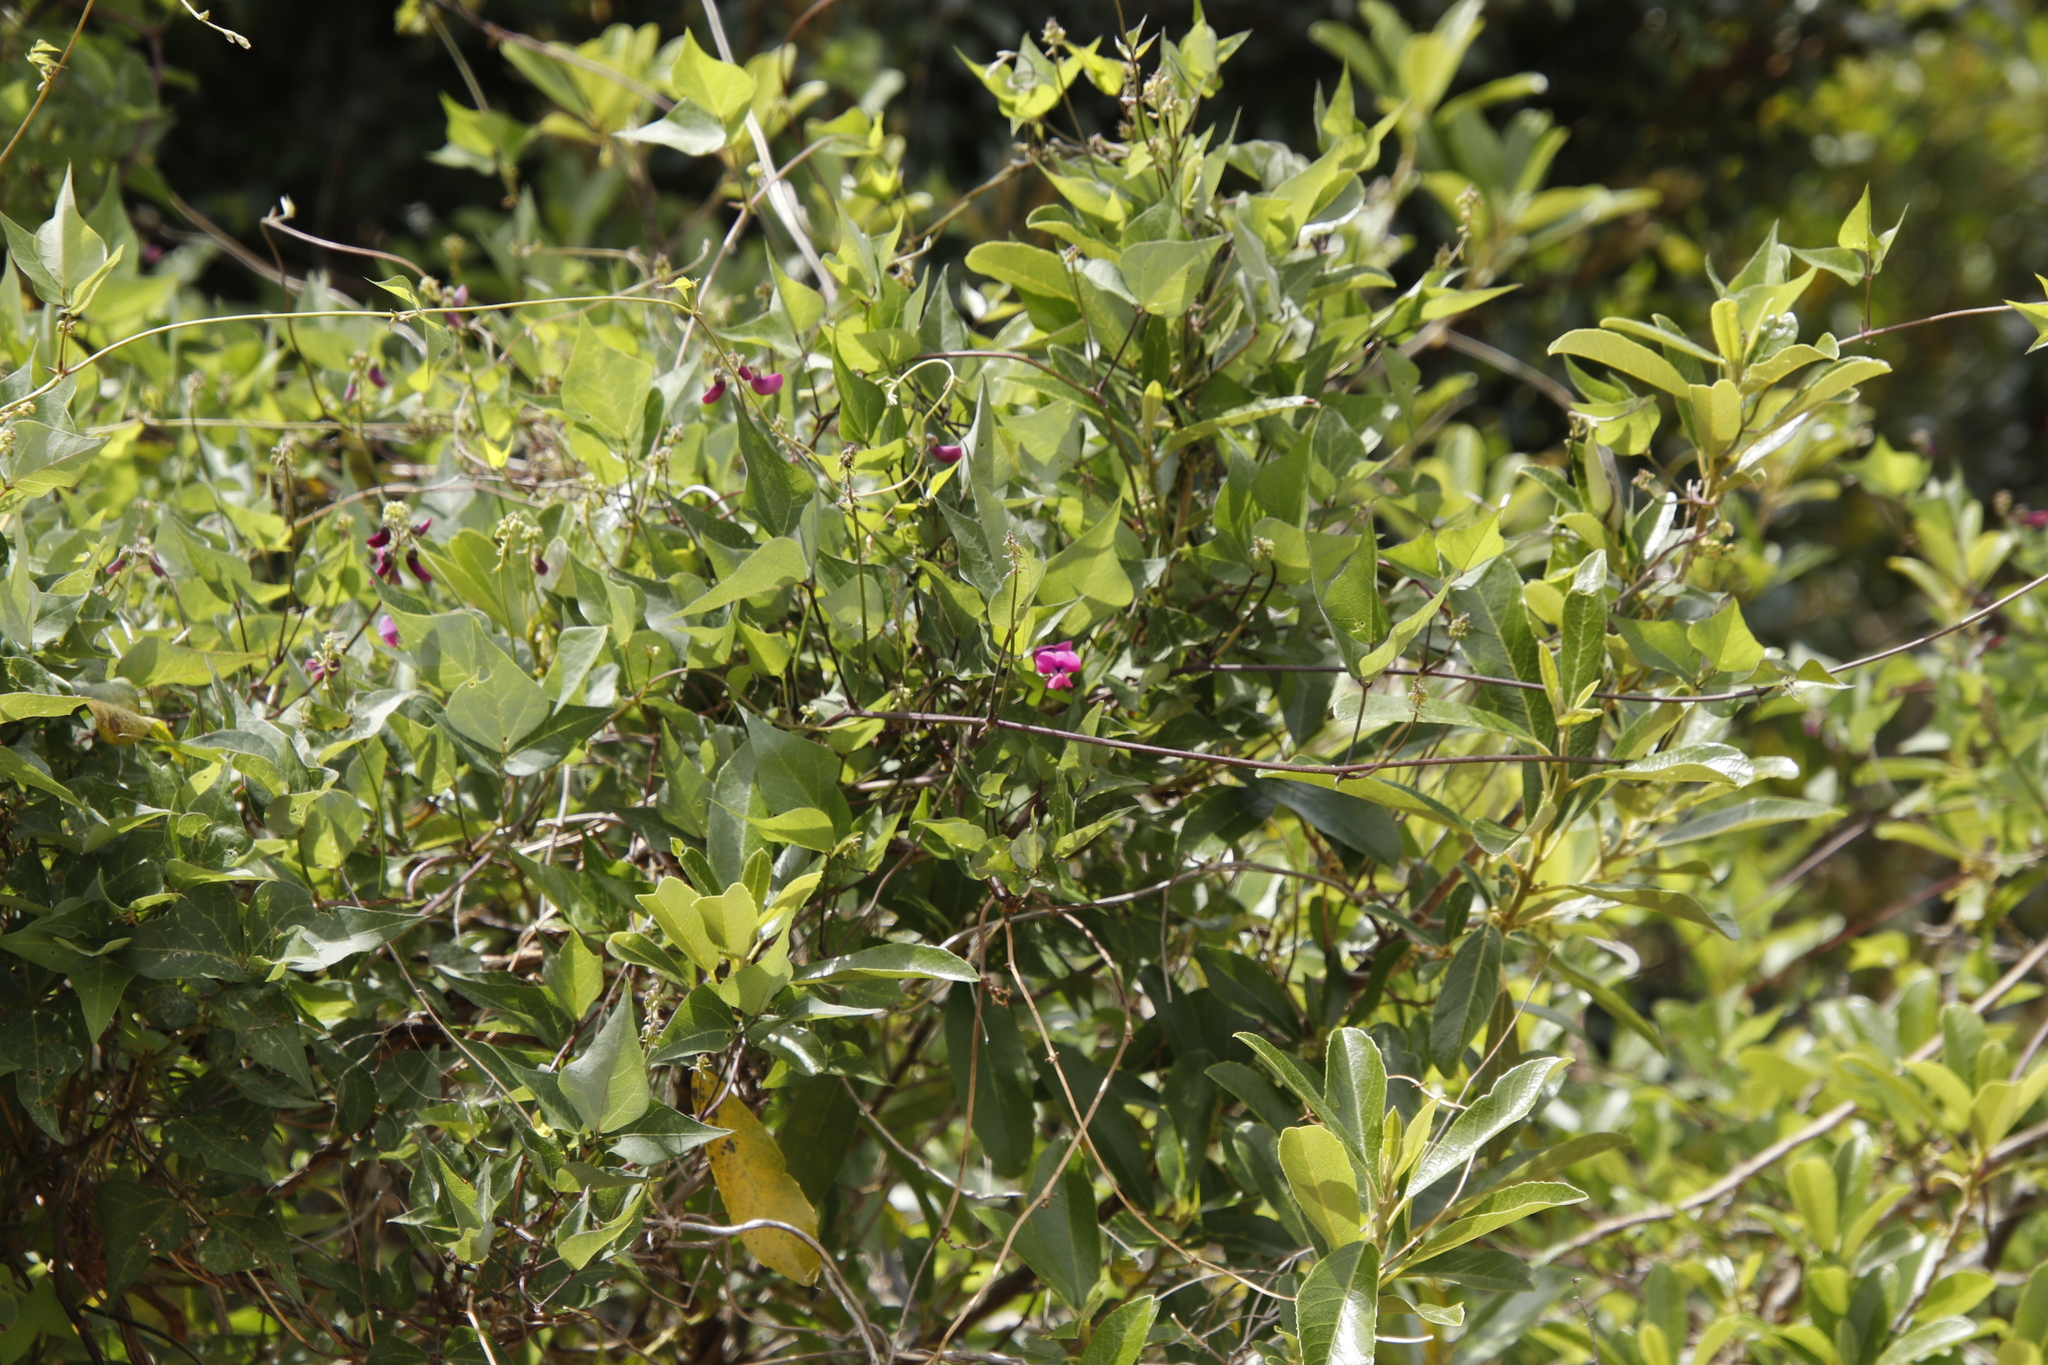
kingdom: Plantae
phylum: Tracheophyta
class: Magnoliopsida
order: Fabales
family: Fabaceae
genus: Dipogon
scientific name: Dipogon lignosus
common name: Okie bean
